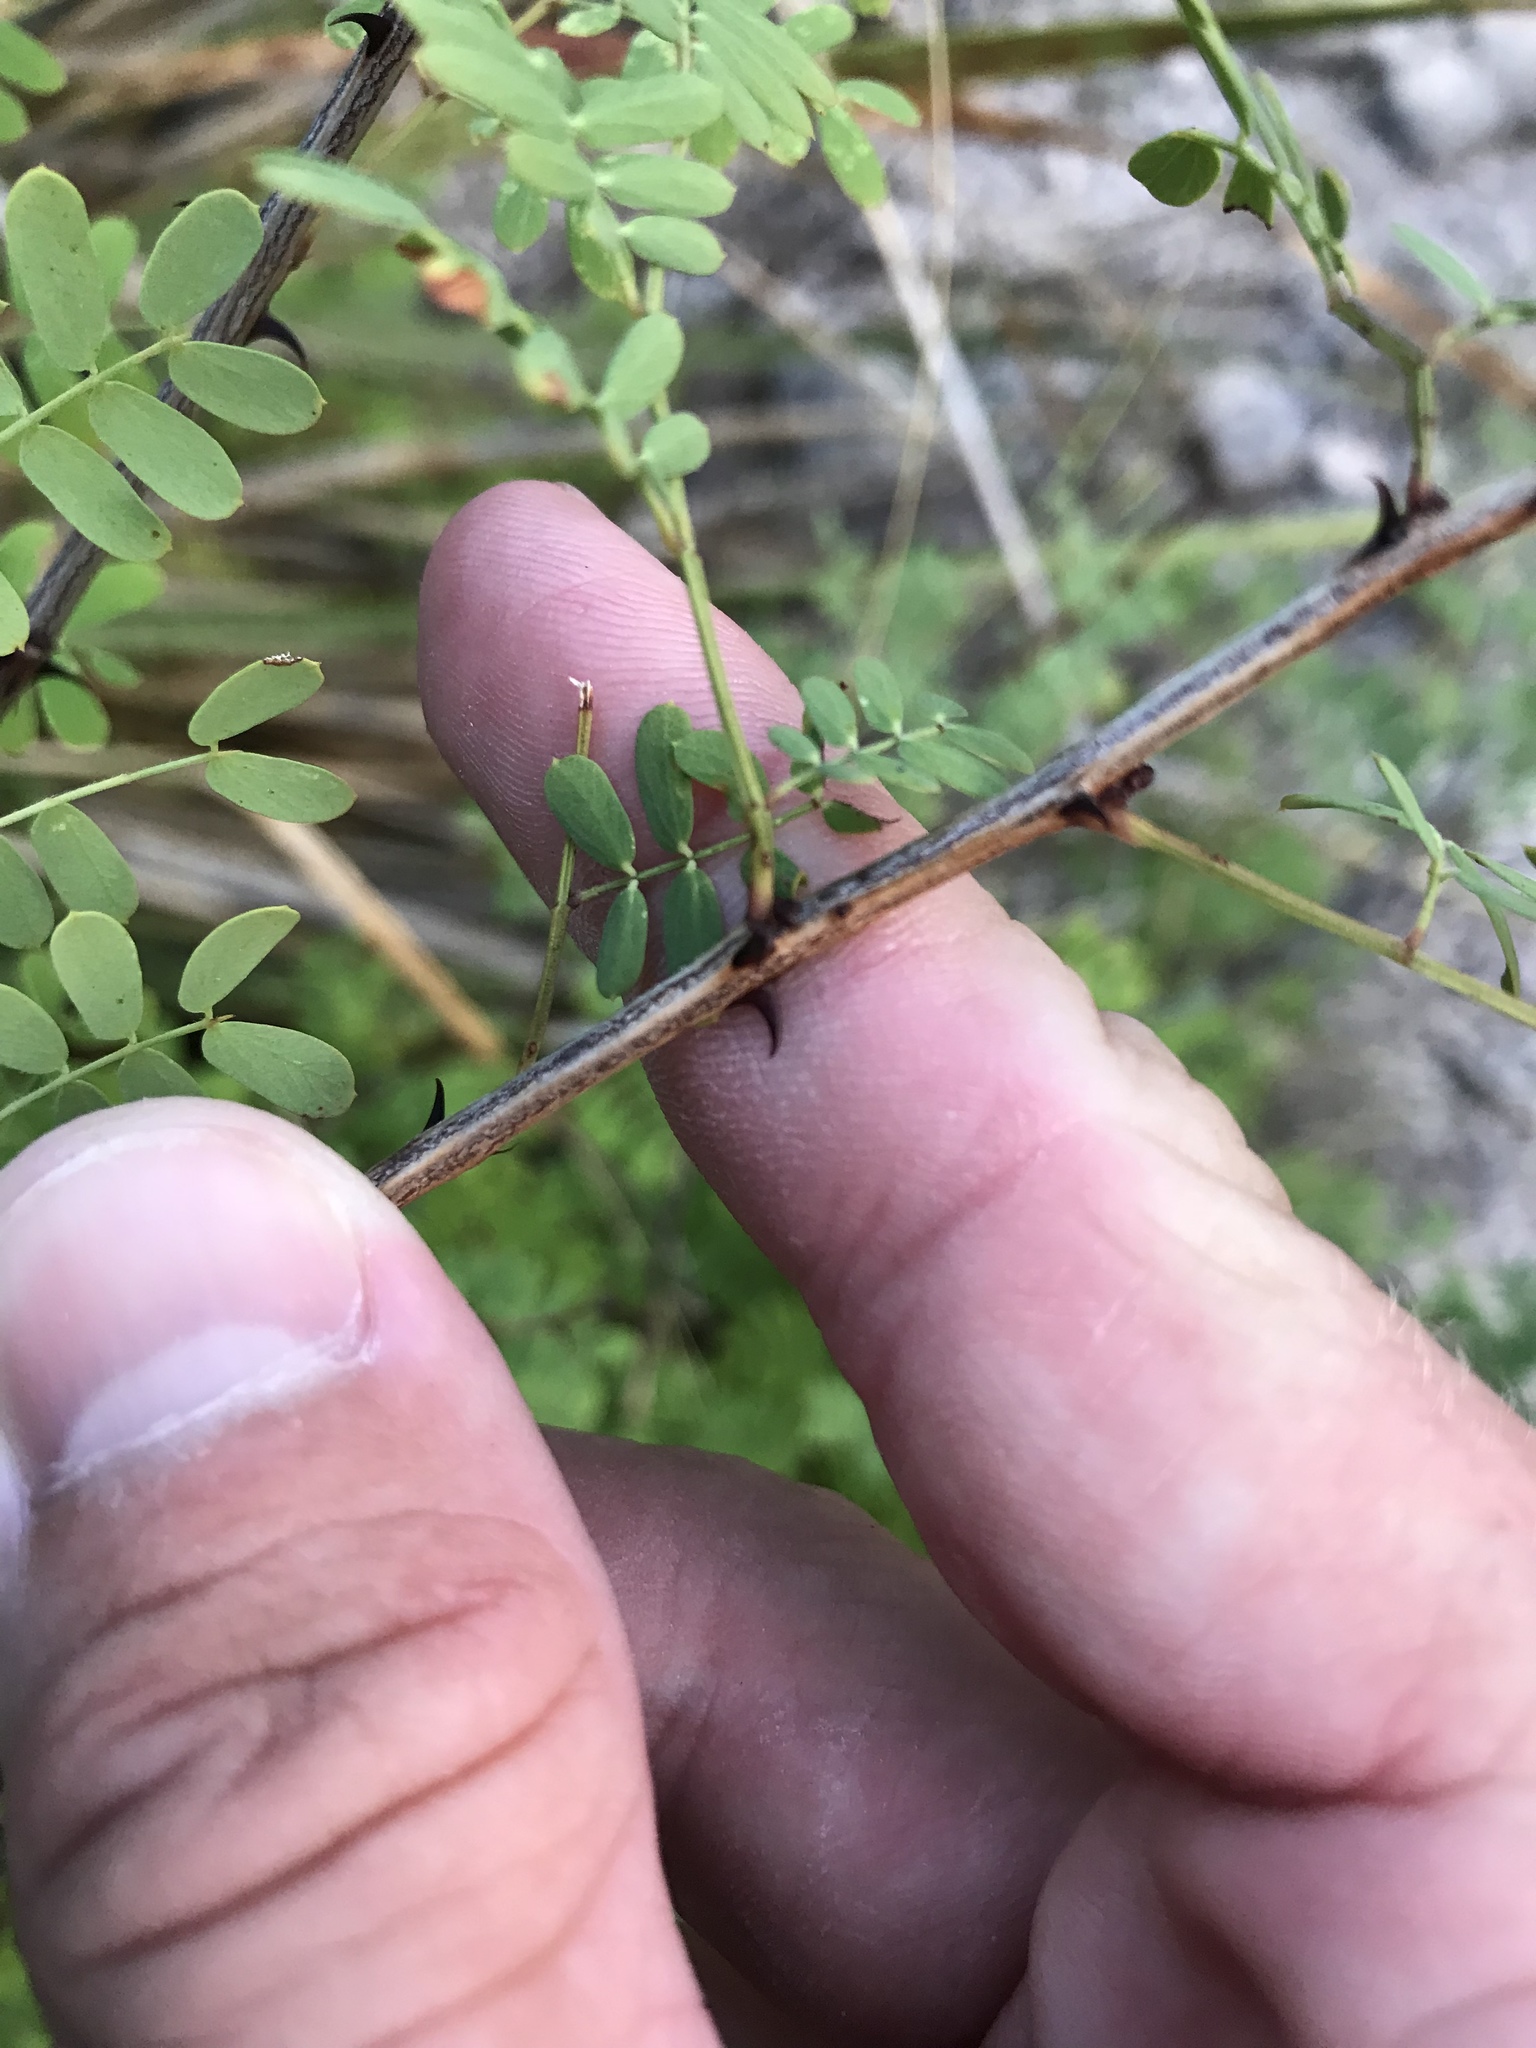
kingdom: Plantae
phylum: Tracheophyta
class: Magnoliopsida
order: Fabales
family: Fabaceae
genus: Senegalia
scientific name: Senegalia roemeriana
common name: Roemer's acacia
